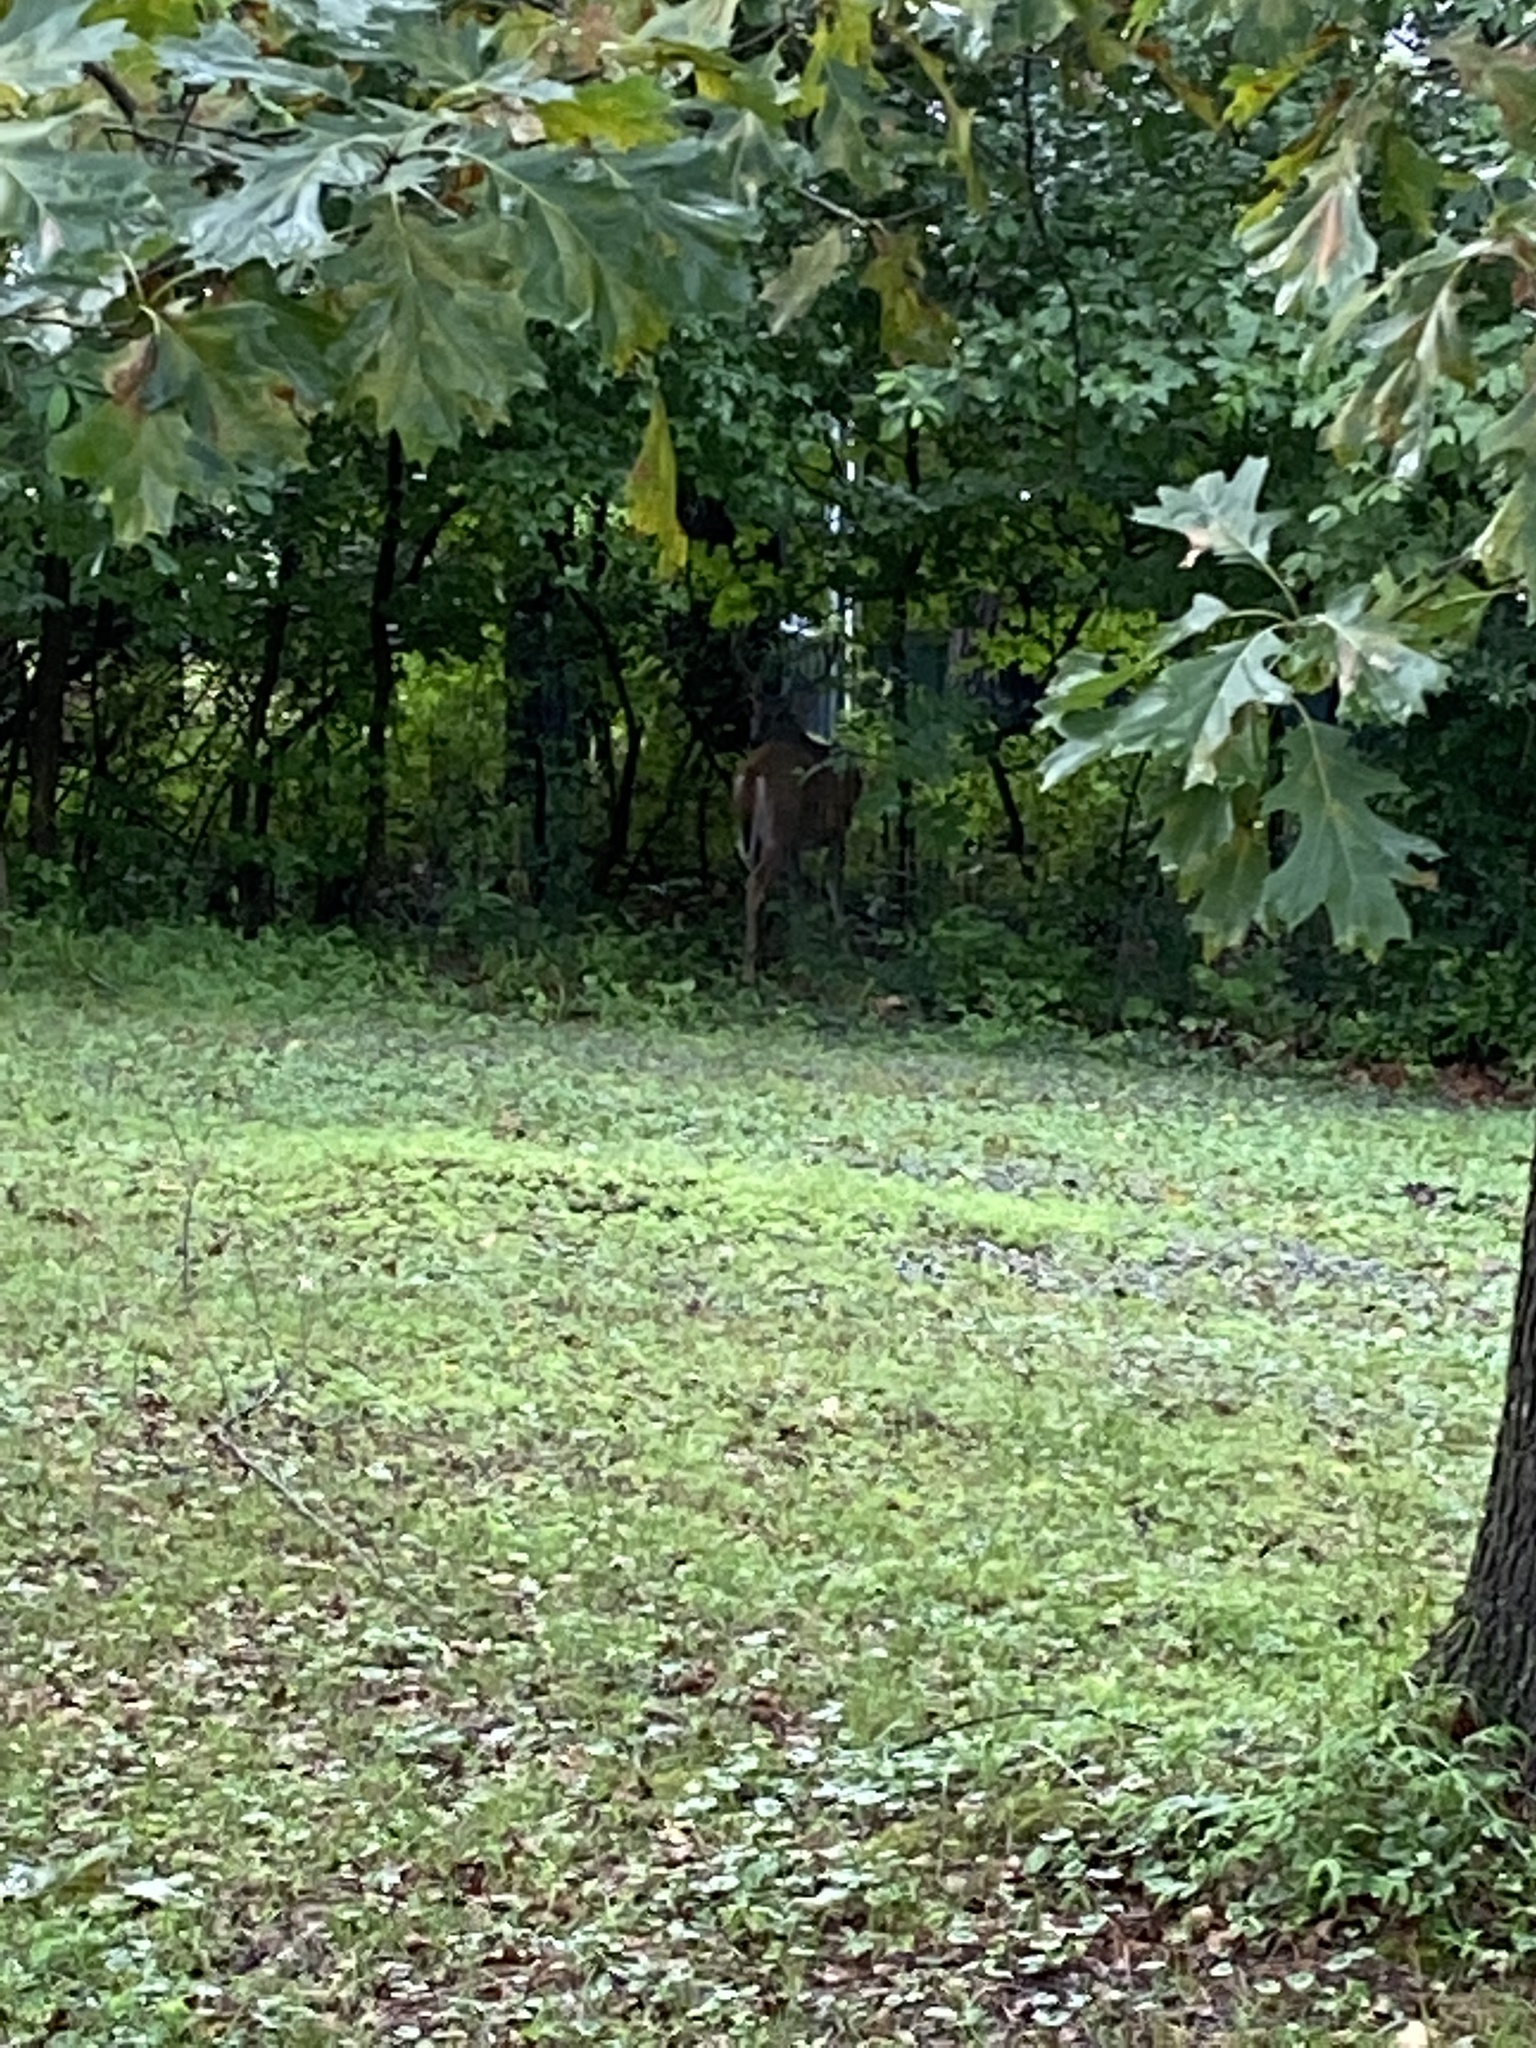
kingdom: Animalia
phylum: Chordata
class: Mammalia
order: Artiodactyla
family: Cervidae
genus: Odocoileus
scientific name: Odocoileus virginianus
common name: White-tailed deer
